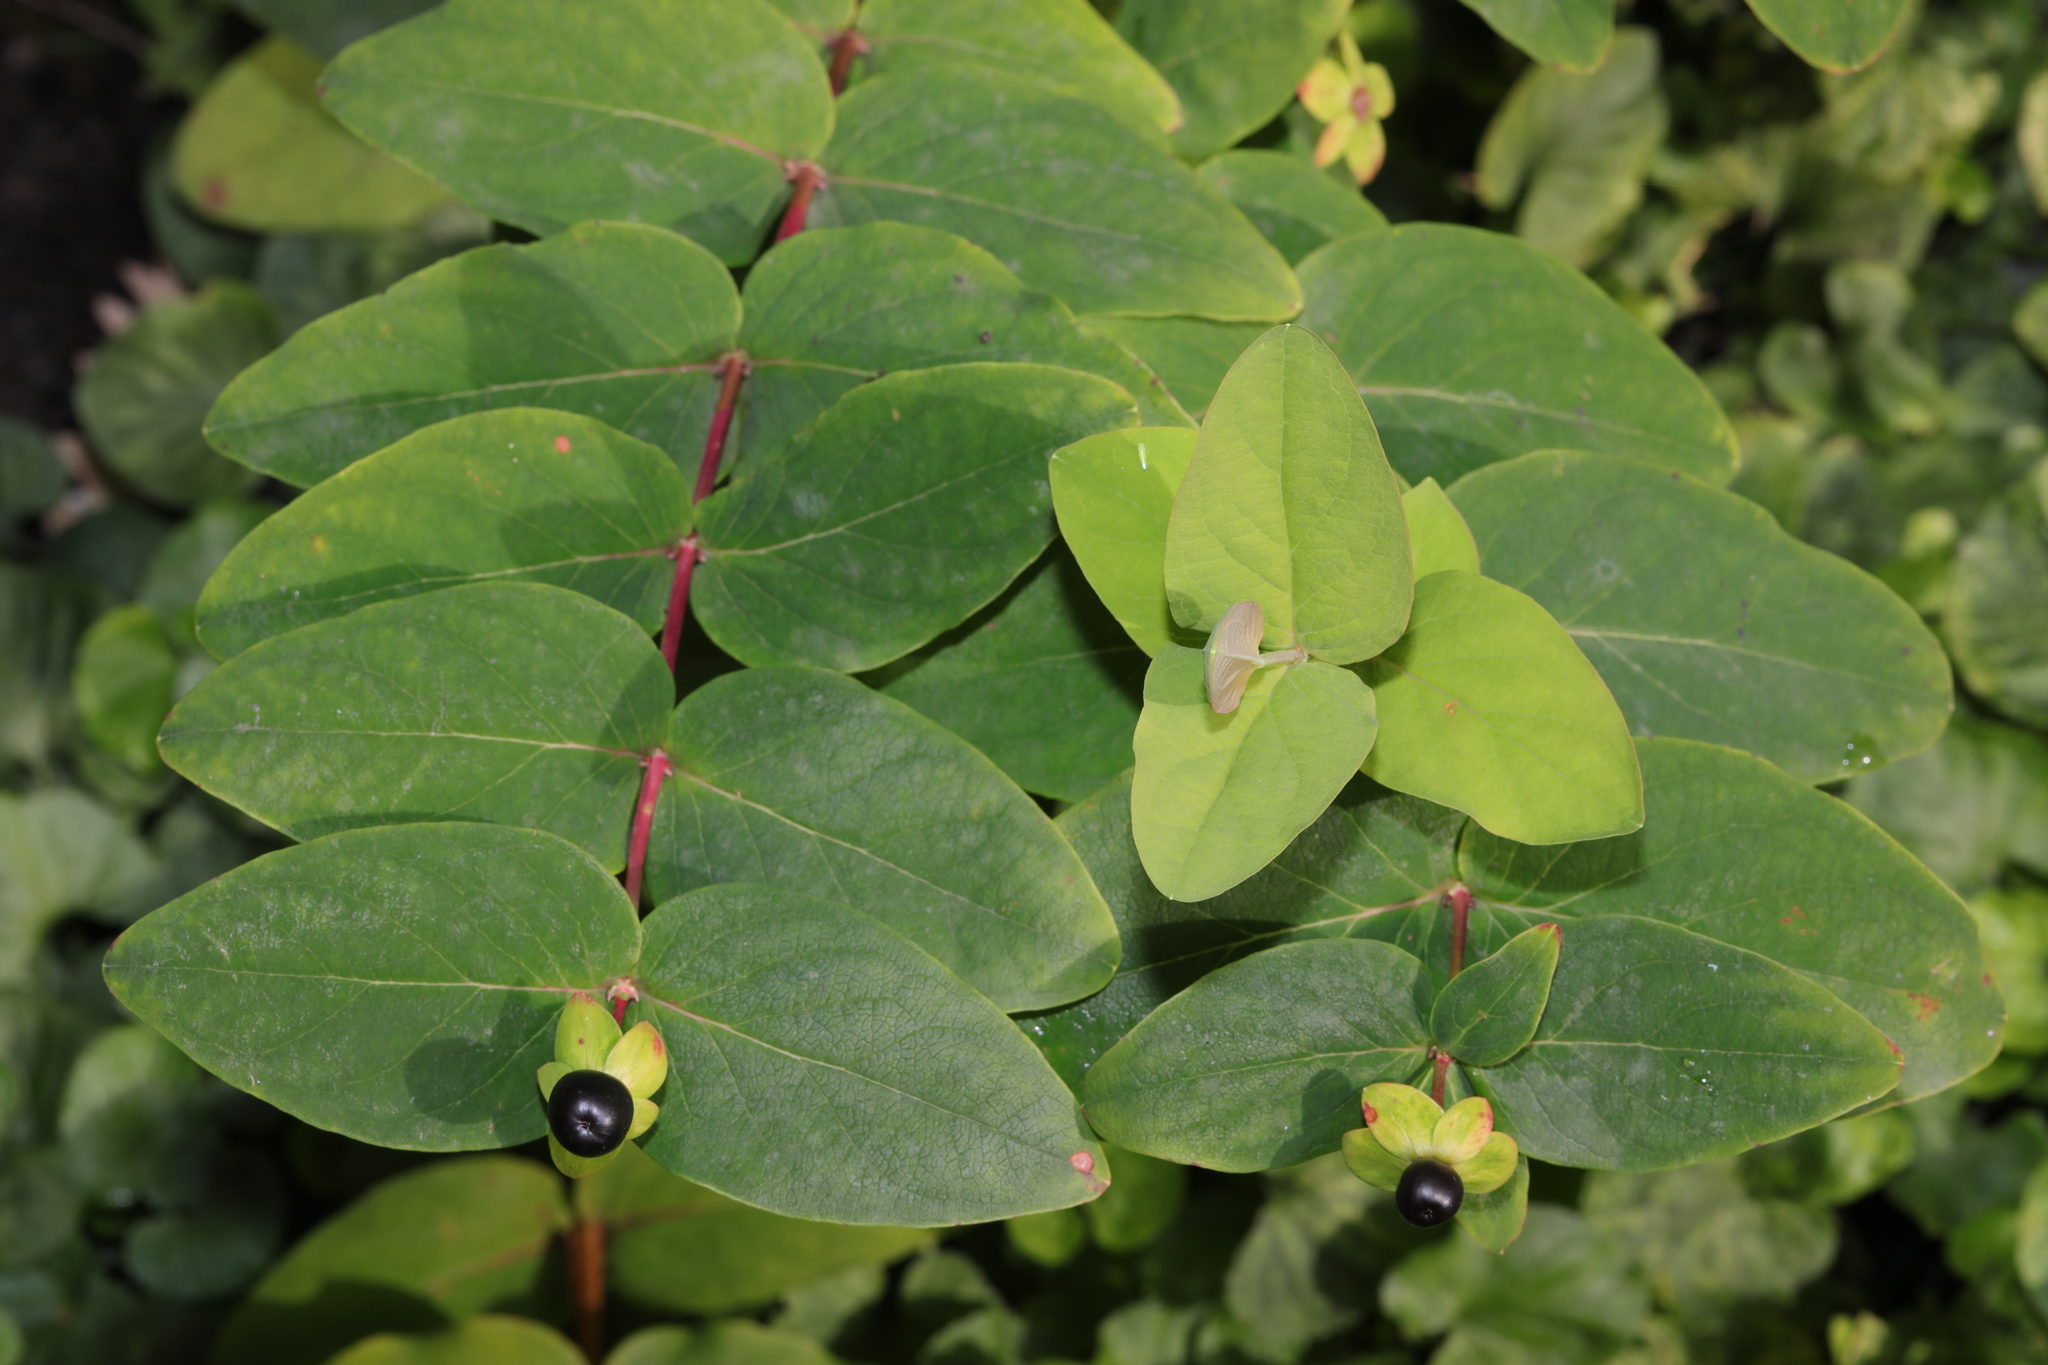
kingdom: Plantae
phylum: Tracheophyta
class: Magnoliopsida
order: Malpighiales
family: Hypericaceae
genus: Hypericum
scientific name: Hypericum androsaemum
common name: Sweet-amber
